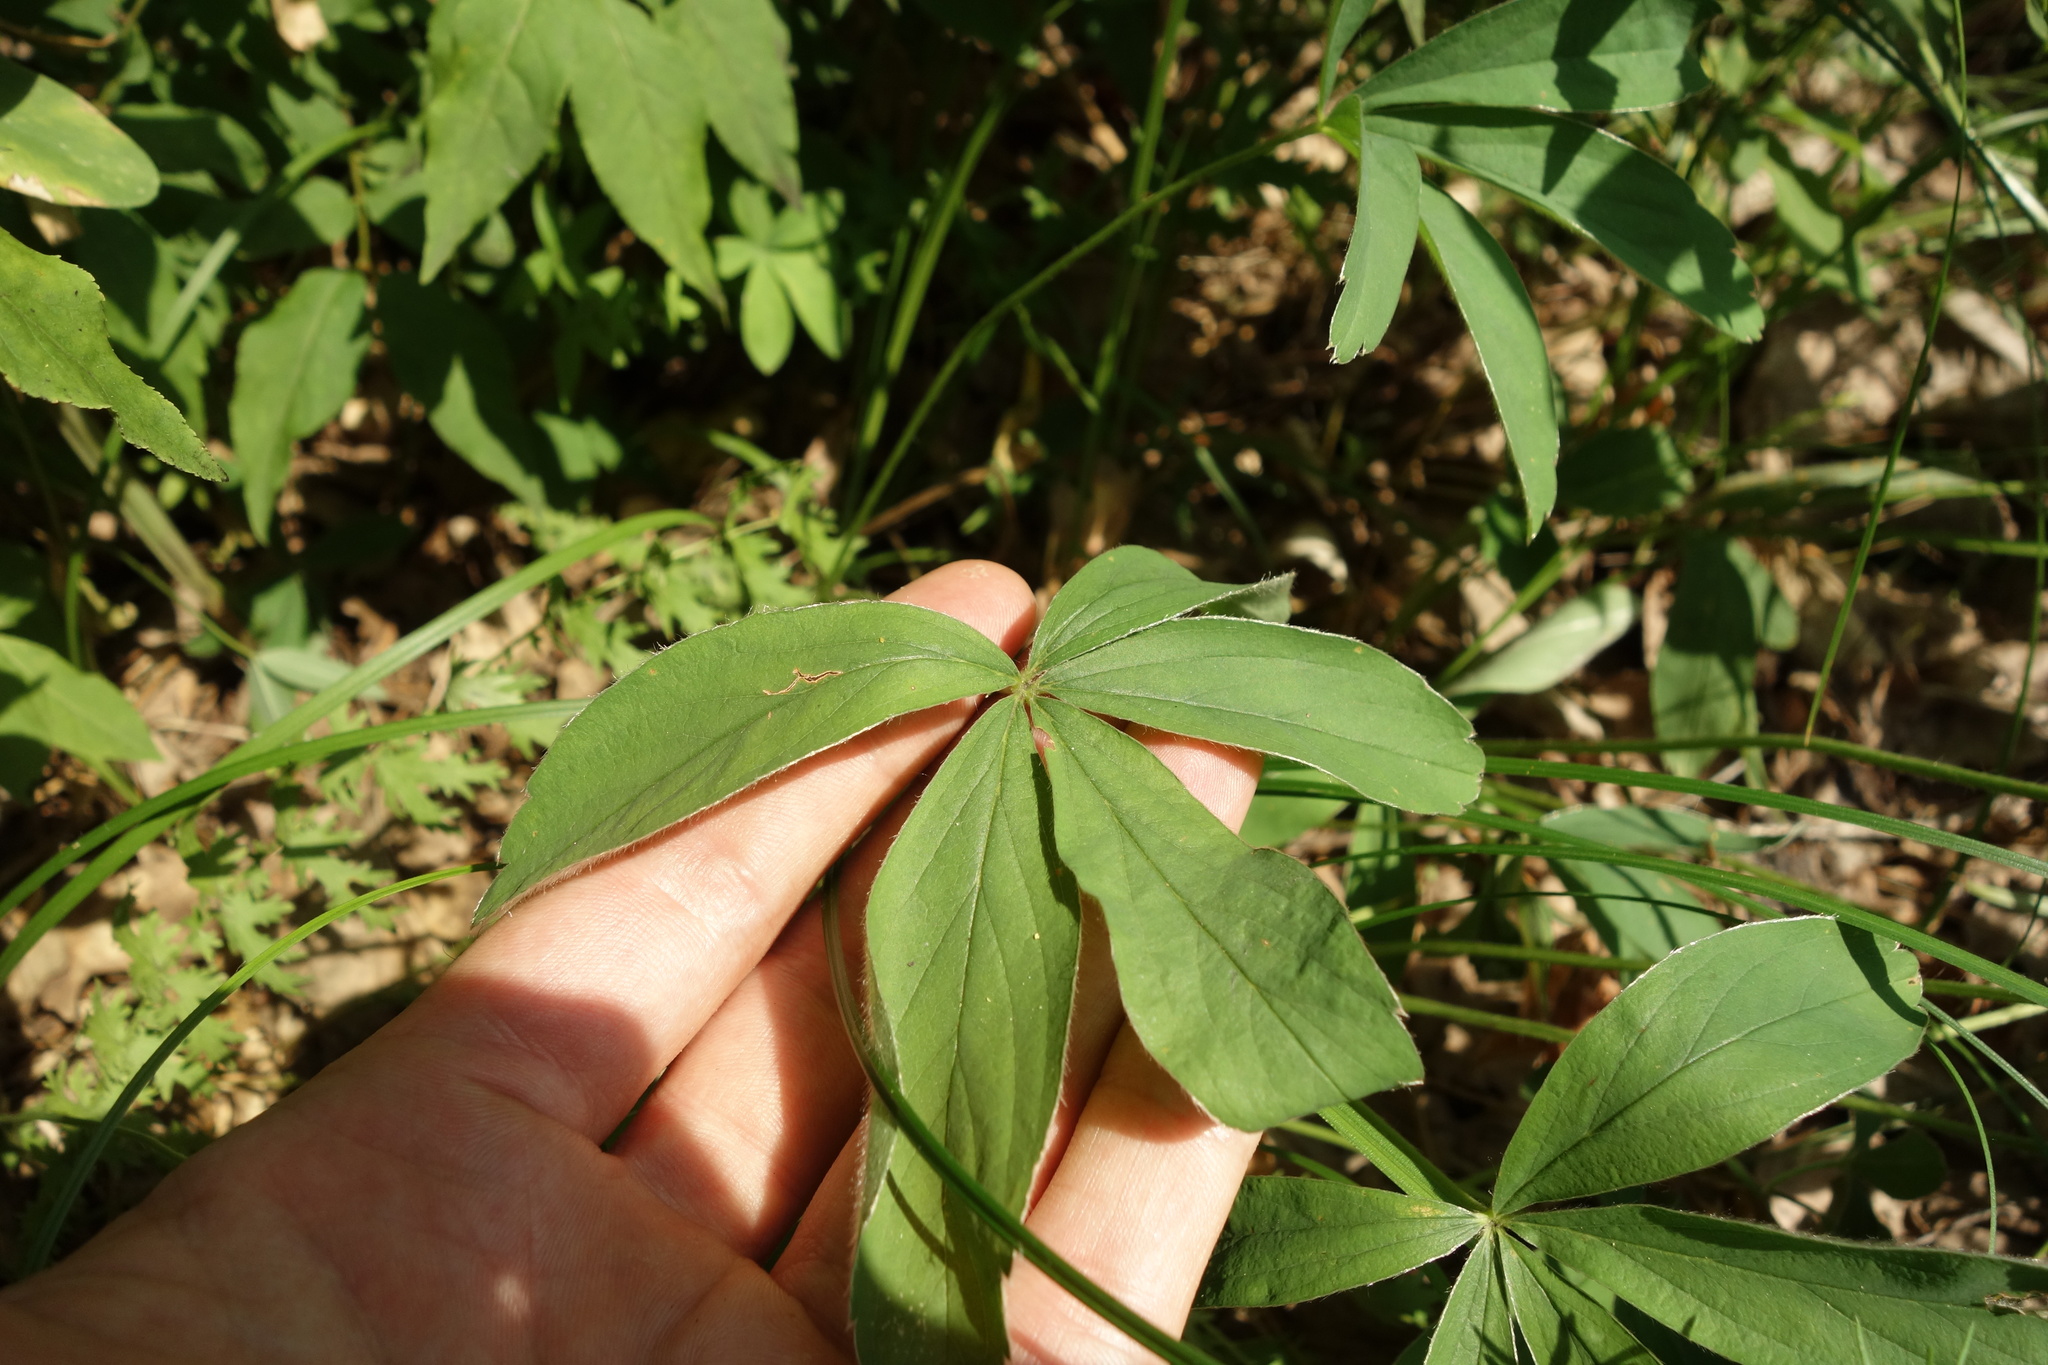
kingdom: Plantae
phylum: Tracheophyta
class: Magnoliopsida
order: Rosales
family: Rosaceae
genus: Potentilla
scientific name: Potentilla alba
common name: White cinquefoil
